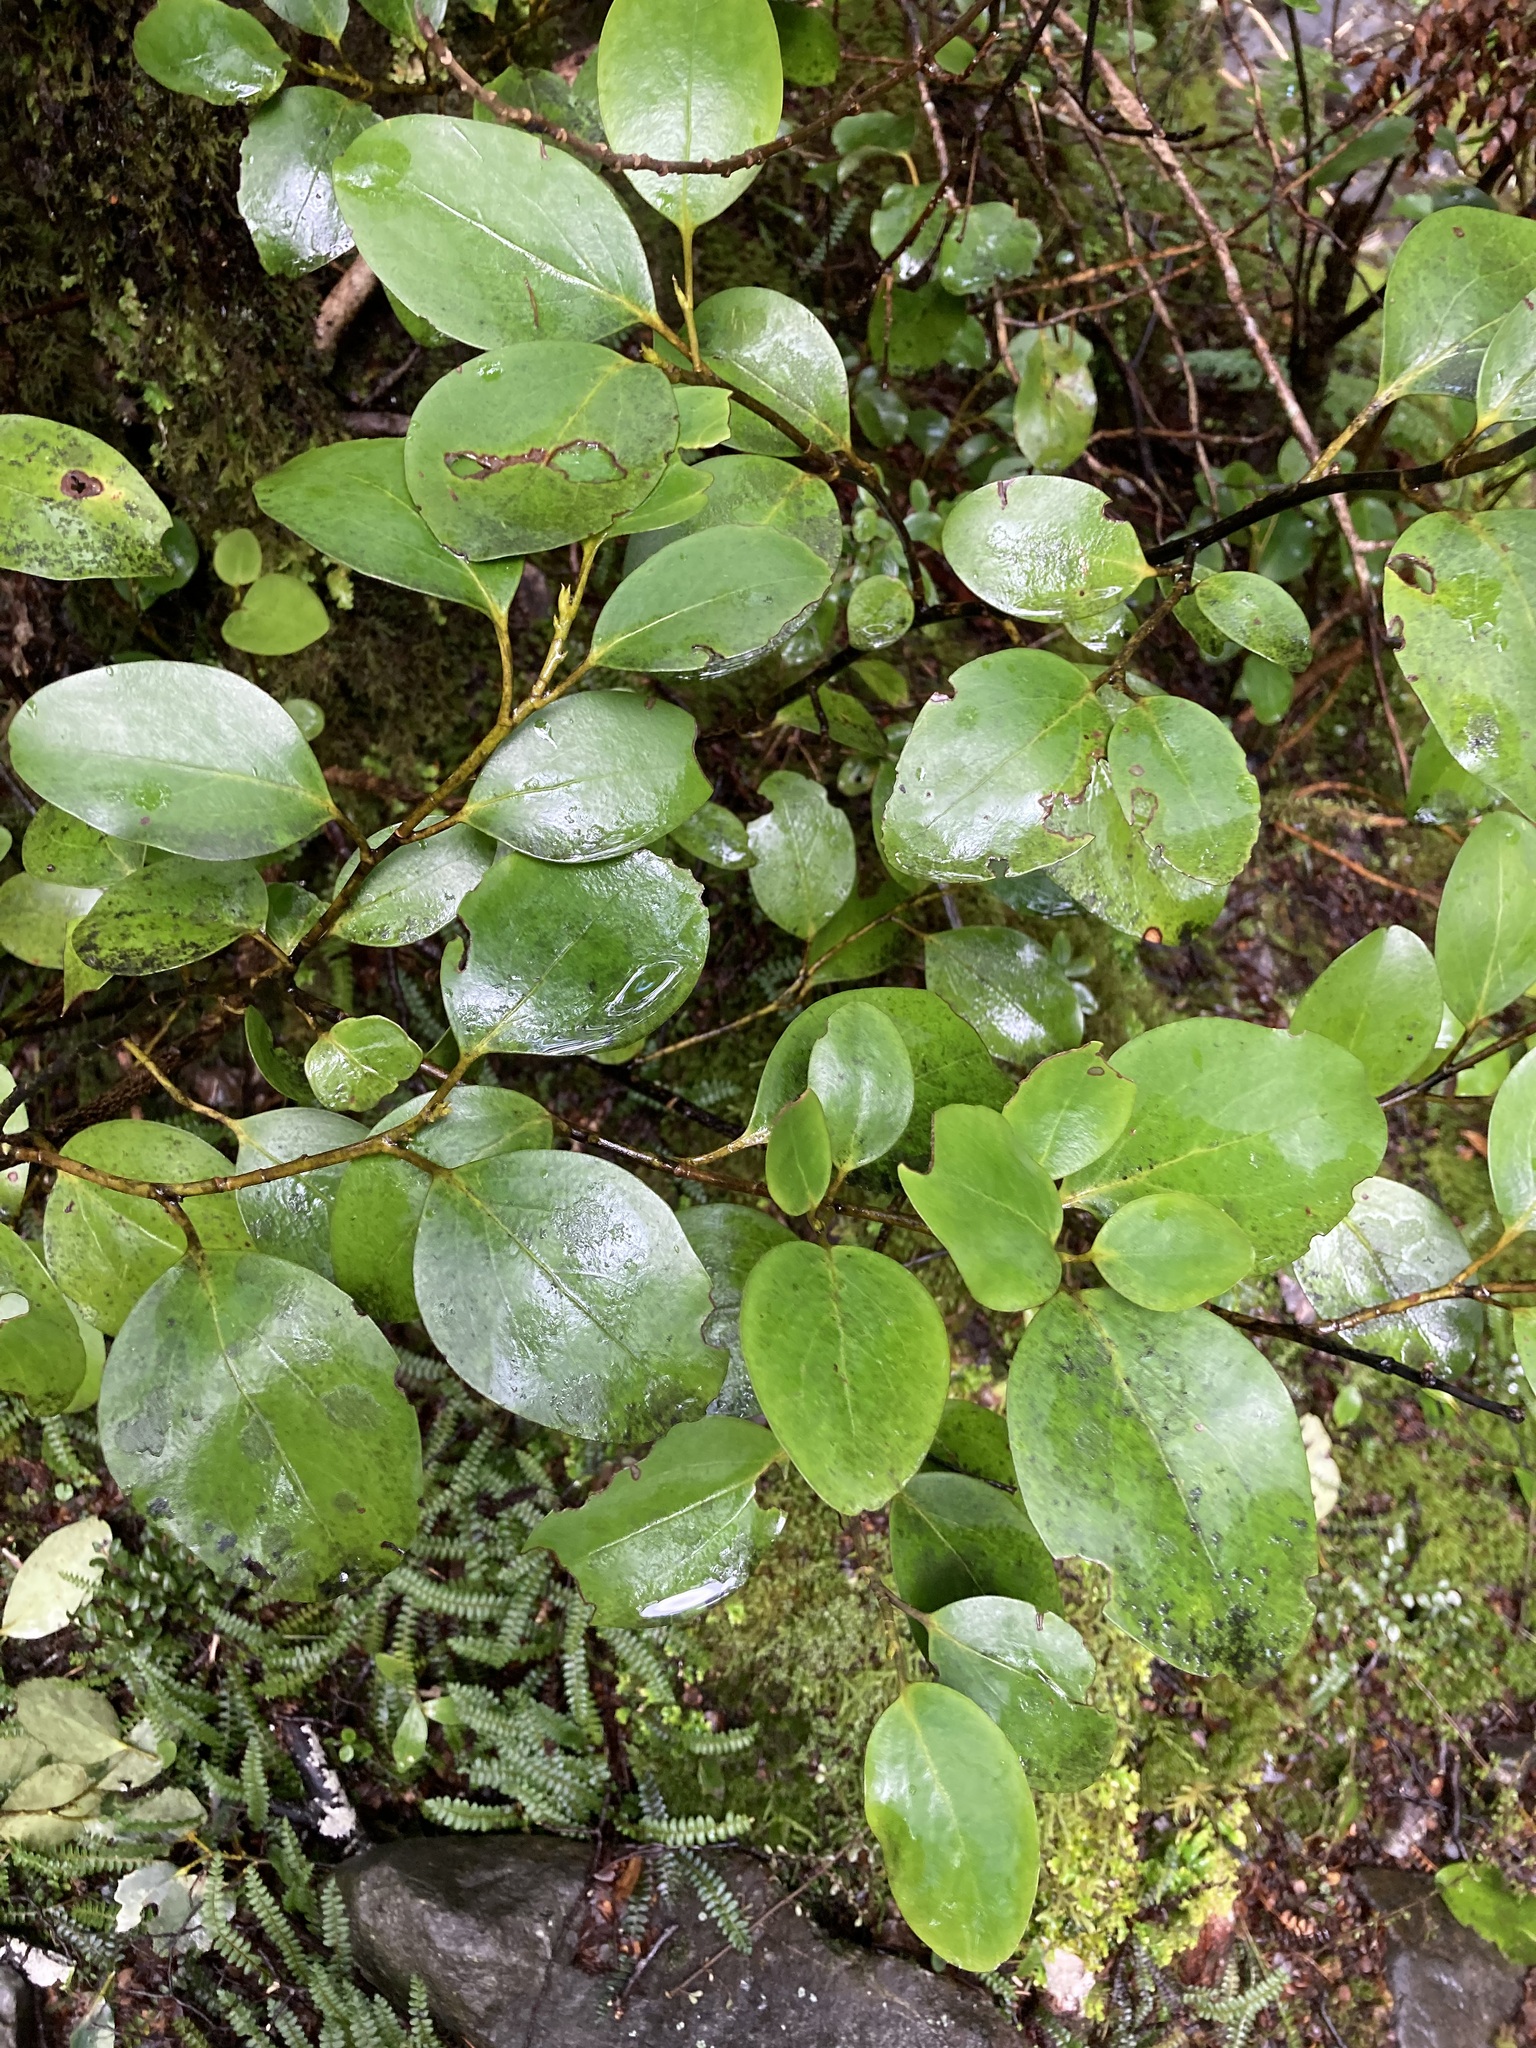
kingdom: Plantae
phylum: Tracheophyta
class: Magnoliopsida
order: Apiales
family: Griseliniaceae
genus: Griselinia
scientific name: Griselinia littoralis
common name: New zealand broadleaf
